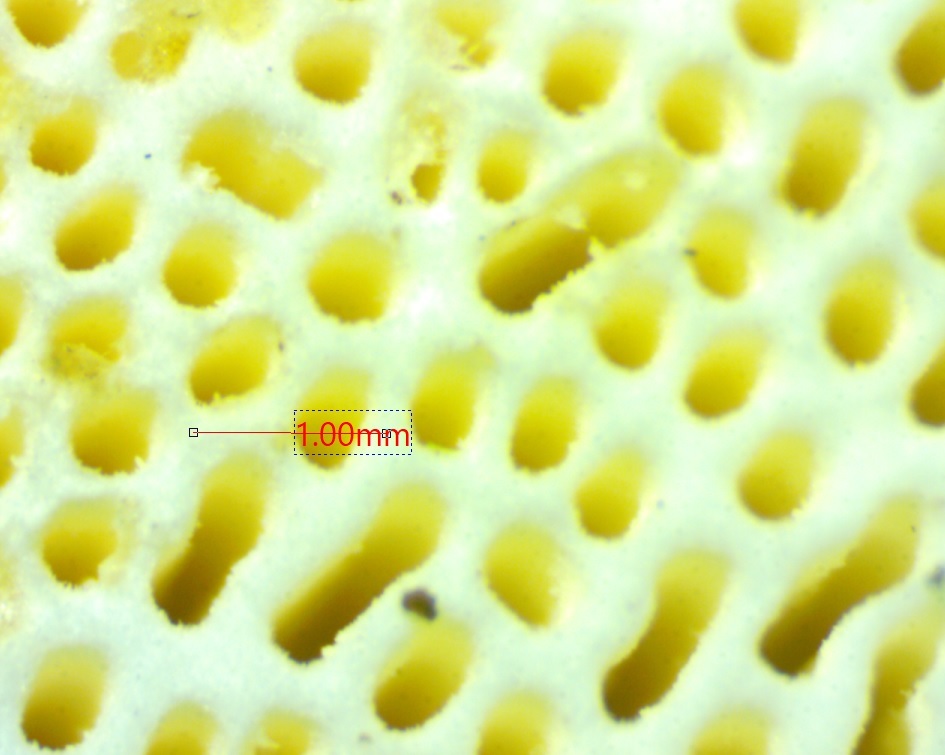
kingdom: Fungi
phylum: Basidiomycota
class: Agaricomycetes
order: Polyporales
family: Polyporaceae
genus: Trametes
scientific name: Trametes
